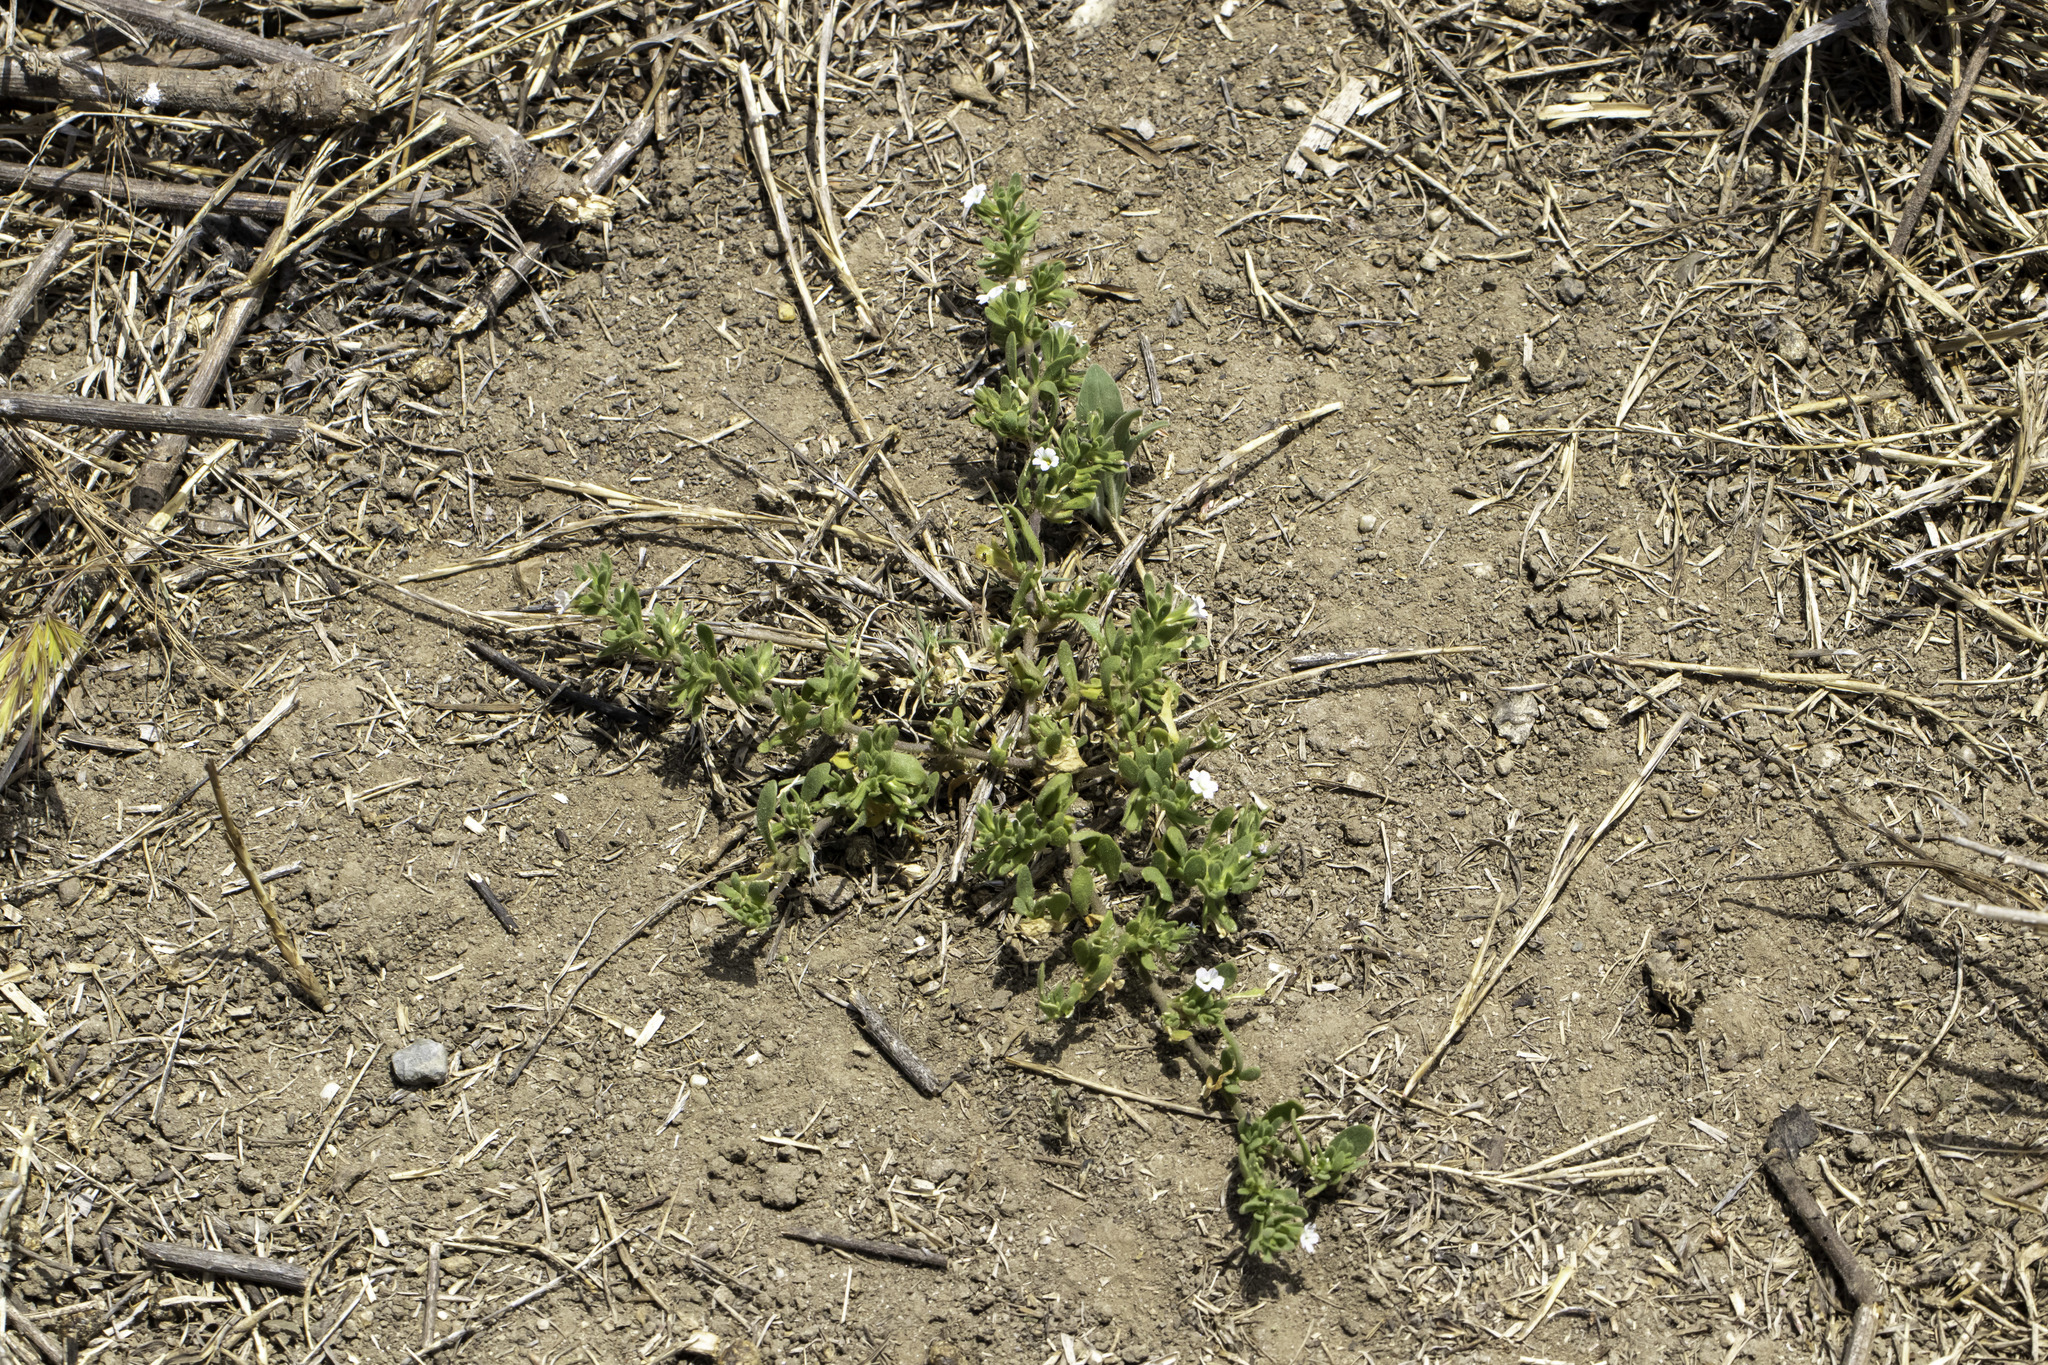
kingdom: Plantae
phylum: Tracheophyta
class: Magnoliopsida
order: Solanales
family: Solanaceae
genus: Calibrachoa
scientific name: Calibrachoa parviflora
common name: Seaside petunia
